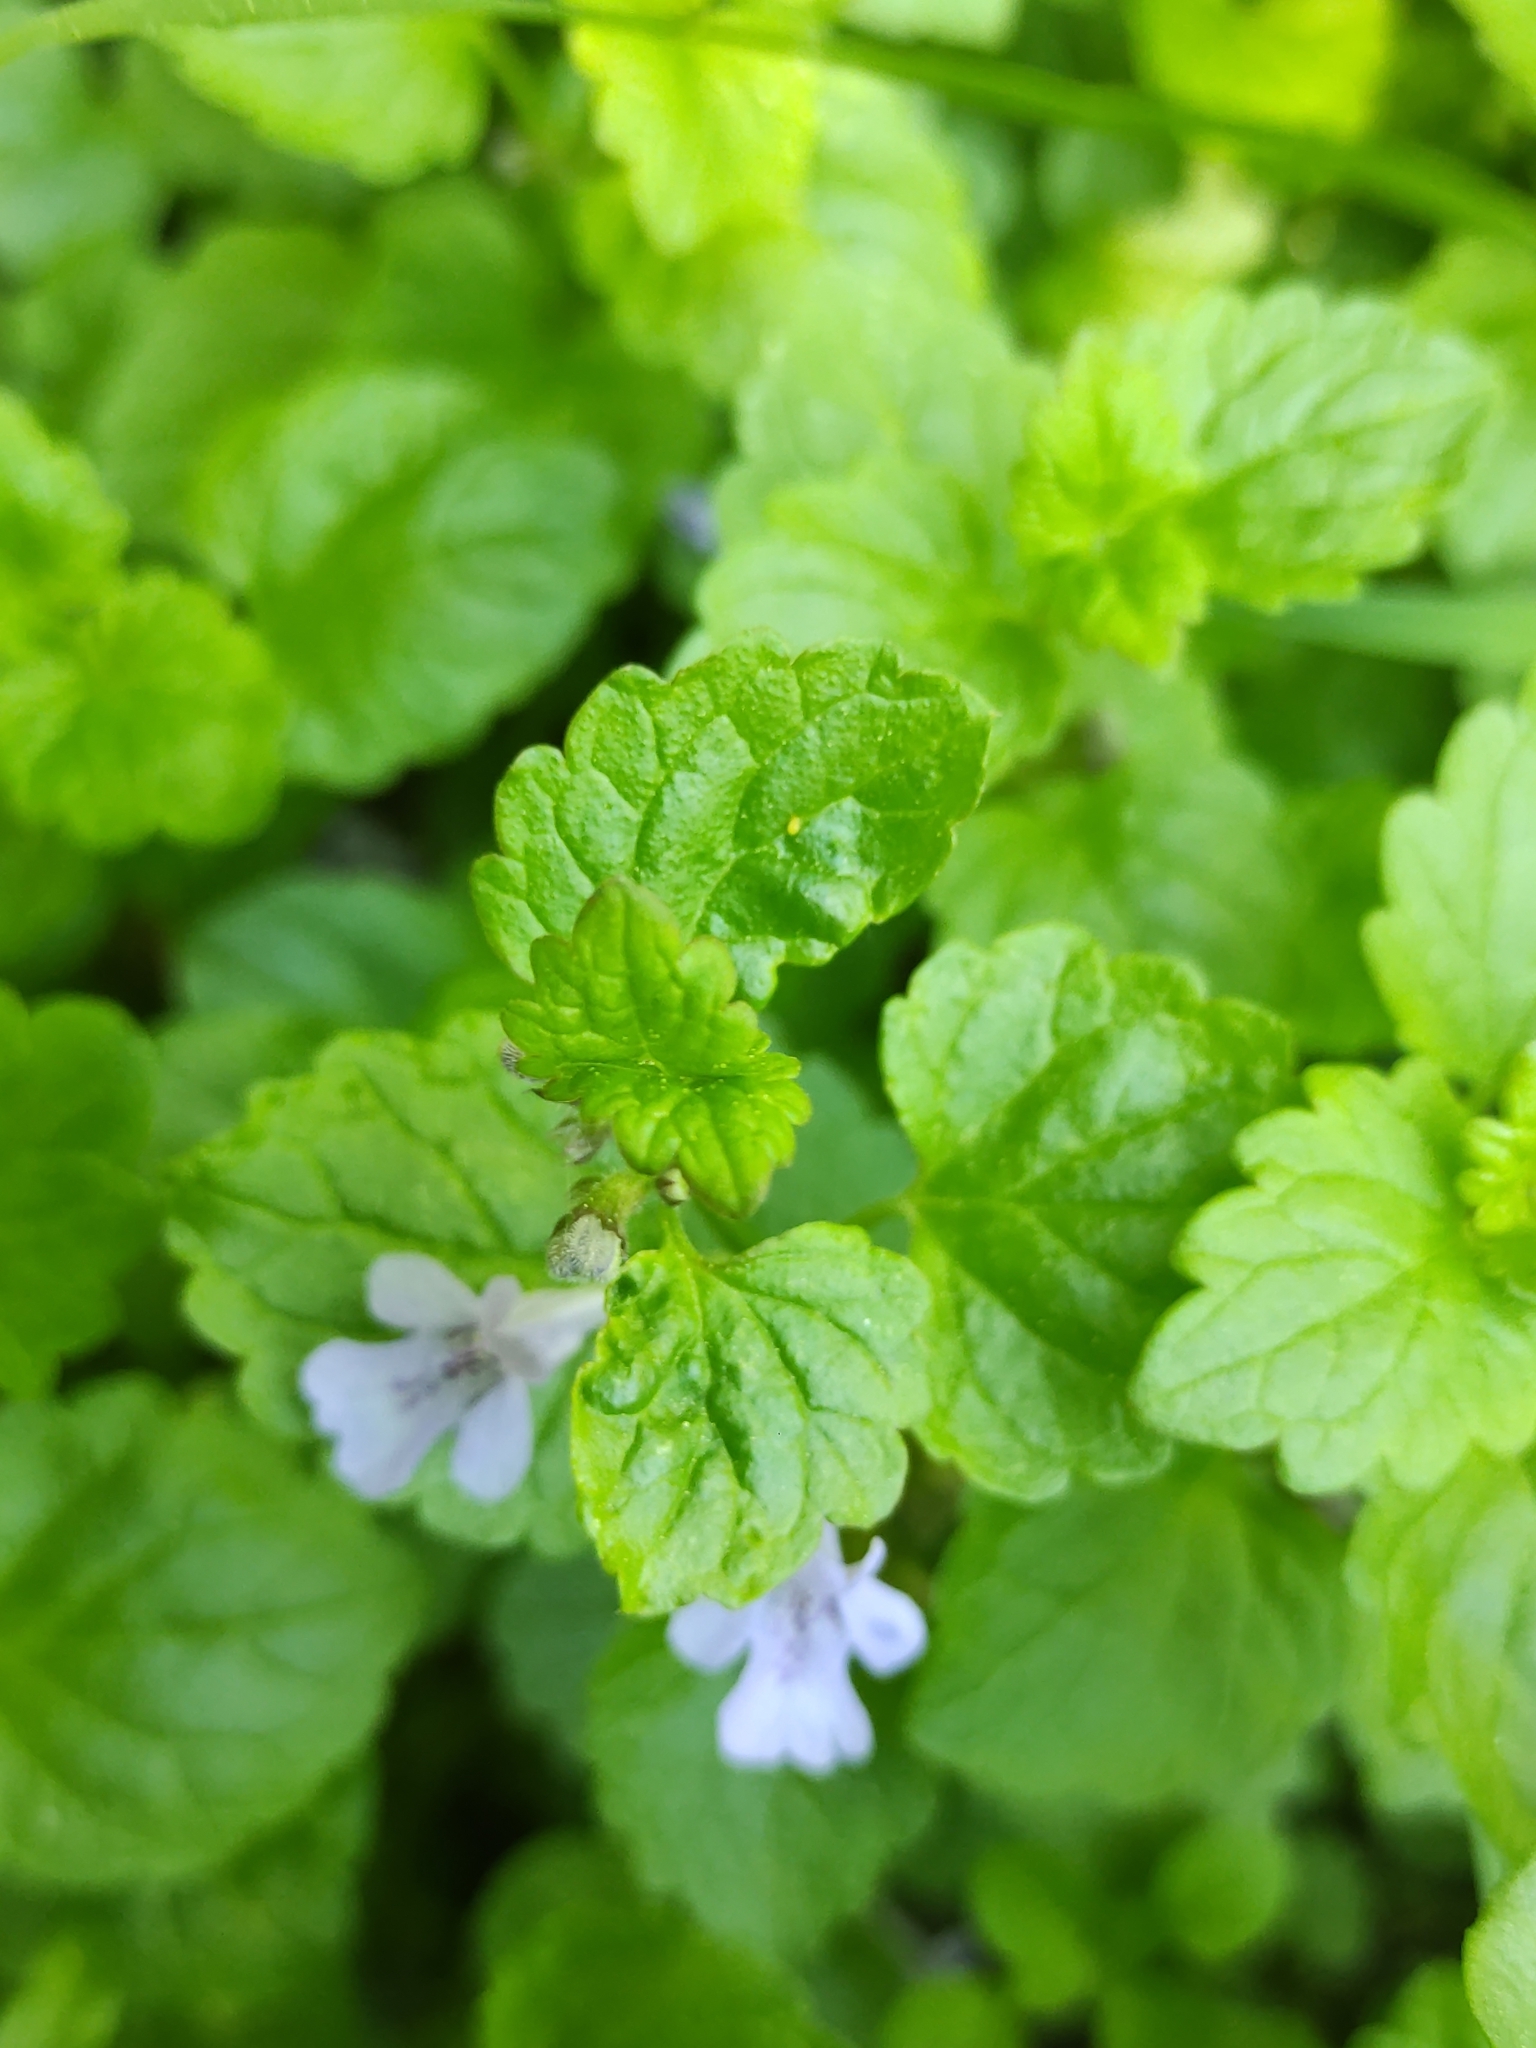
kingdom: Plantae
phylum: Tracheophyta
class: Magnoliopsida
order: Lamiales
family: Lamiaceae
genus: Glechoma
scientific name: Glechoma hederacea
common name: Ground ivy
